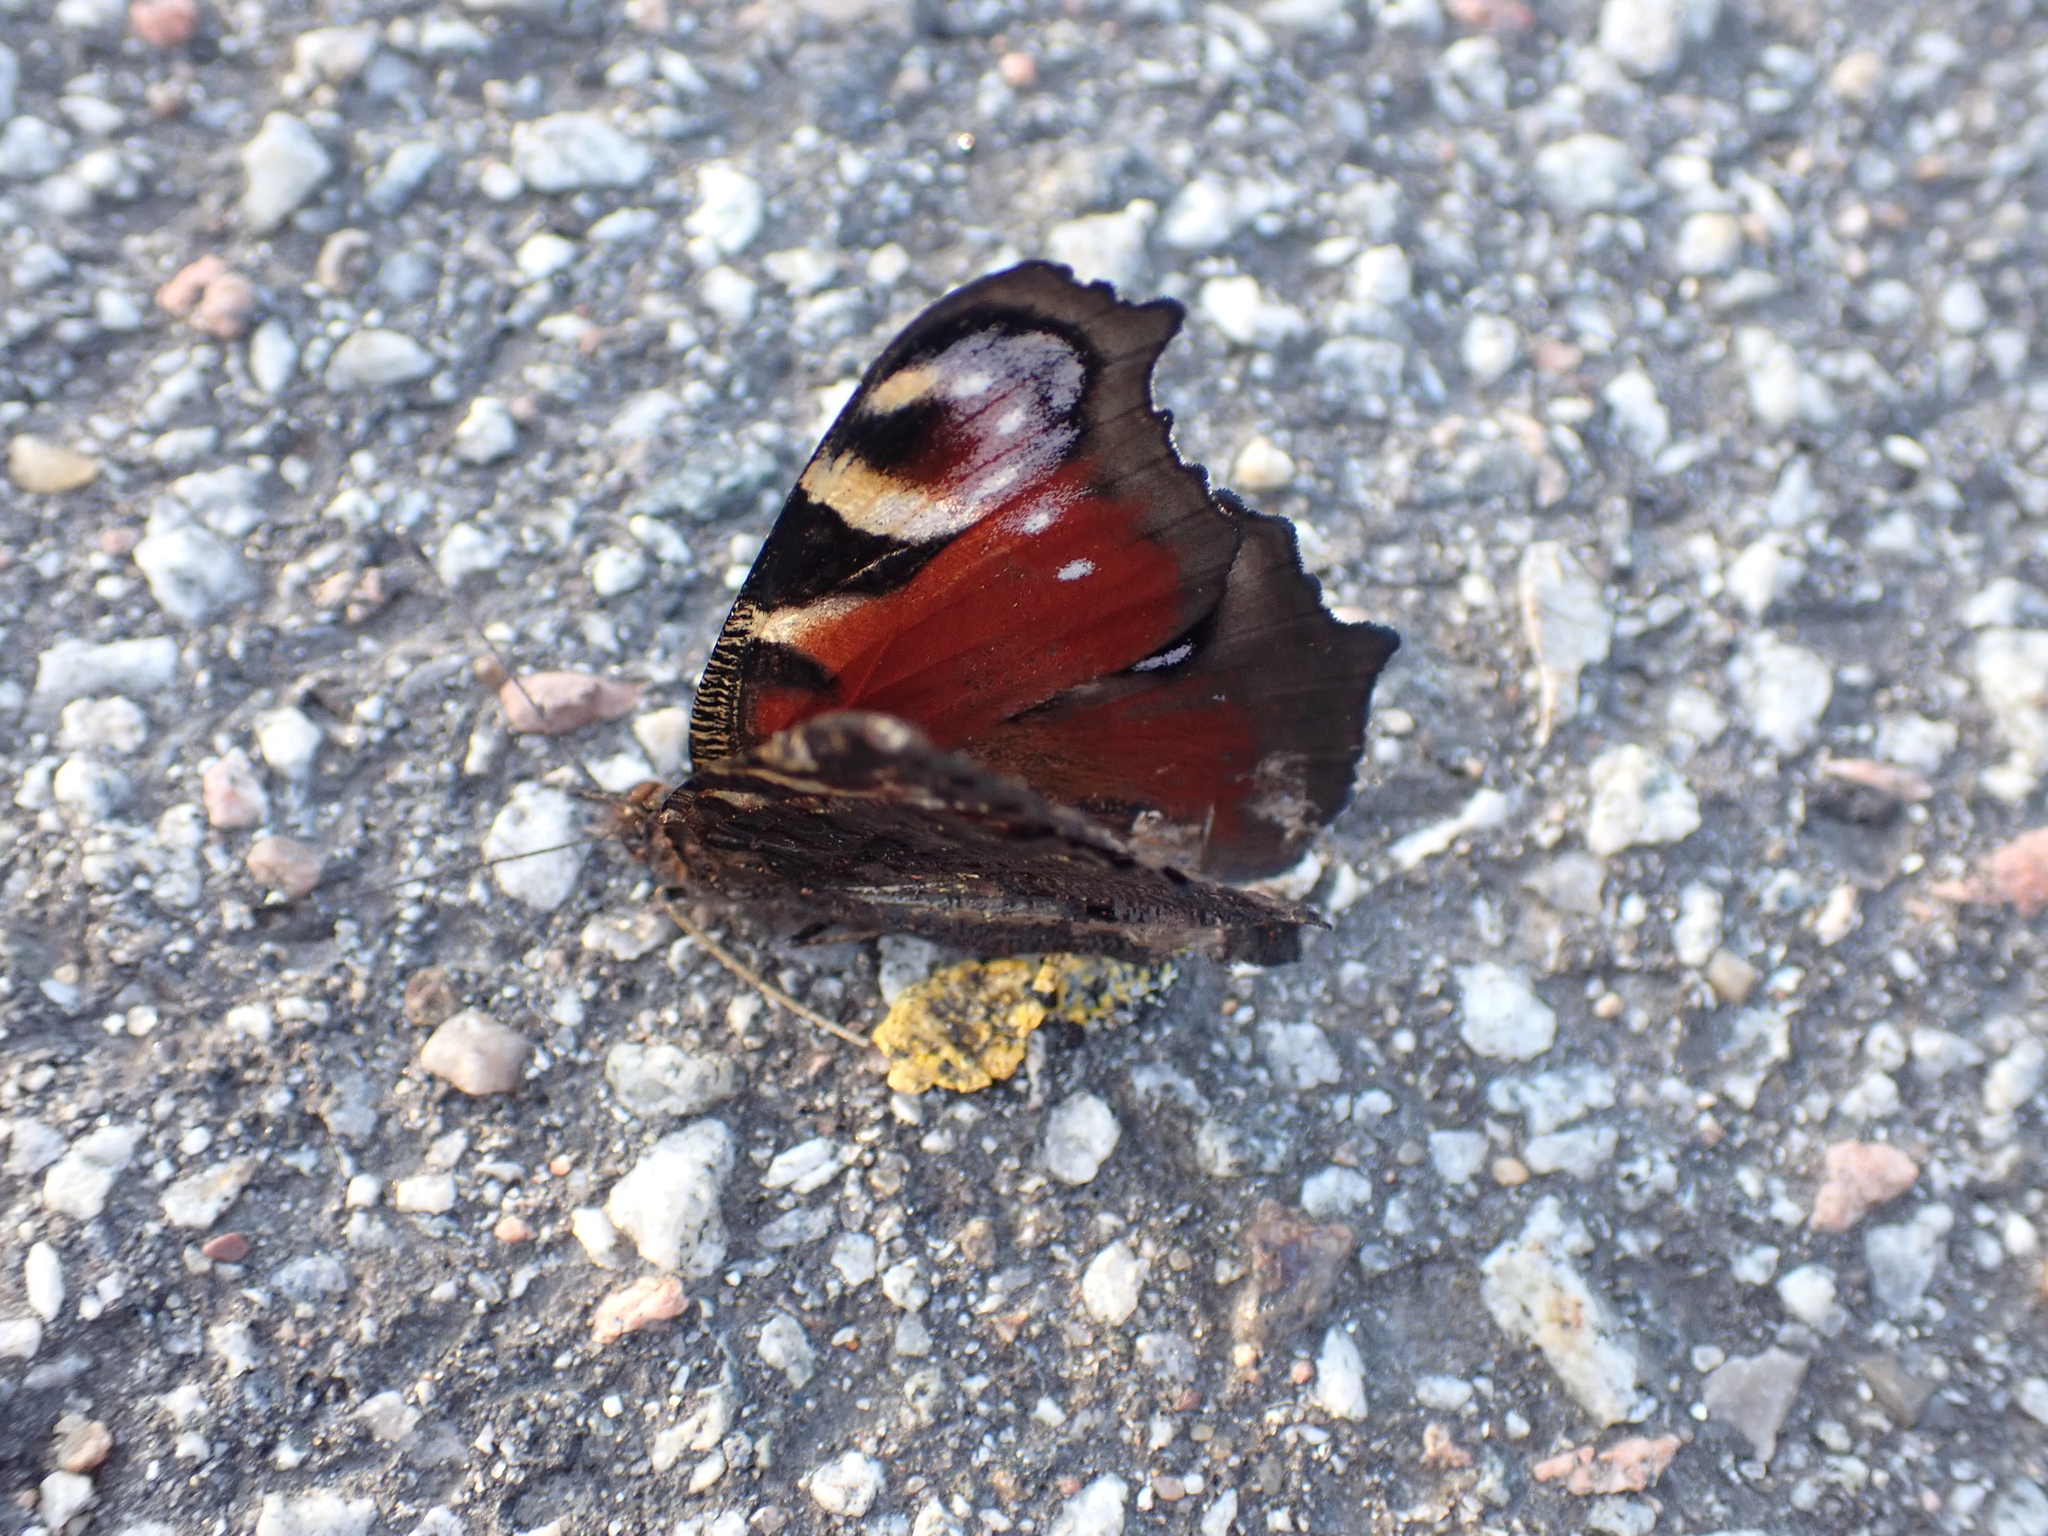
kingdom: Animalia
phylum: Arthropoda
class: Insecta
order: Lepidoptera
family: Nymphalidae
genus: Aglais
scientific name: Aglais io
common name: Peacock
